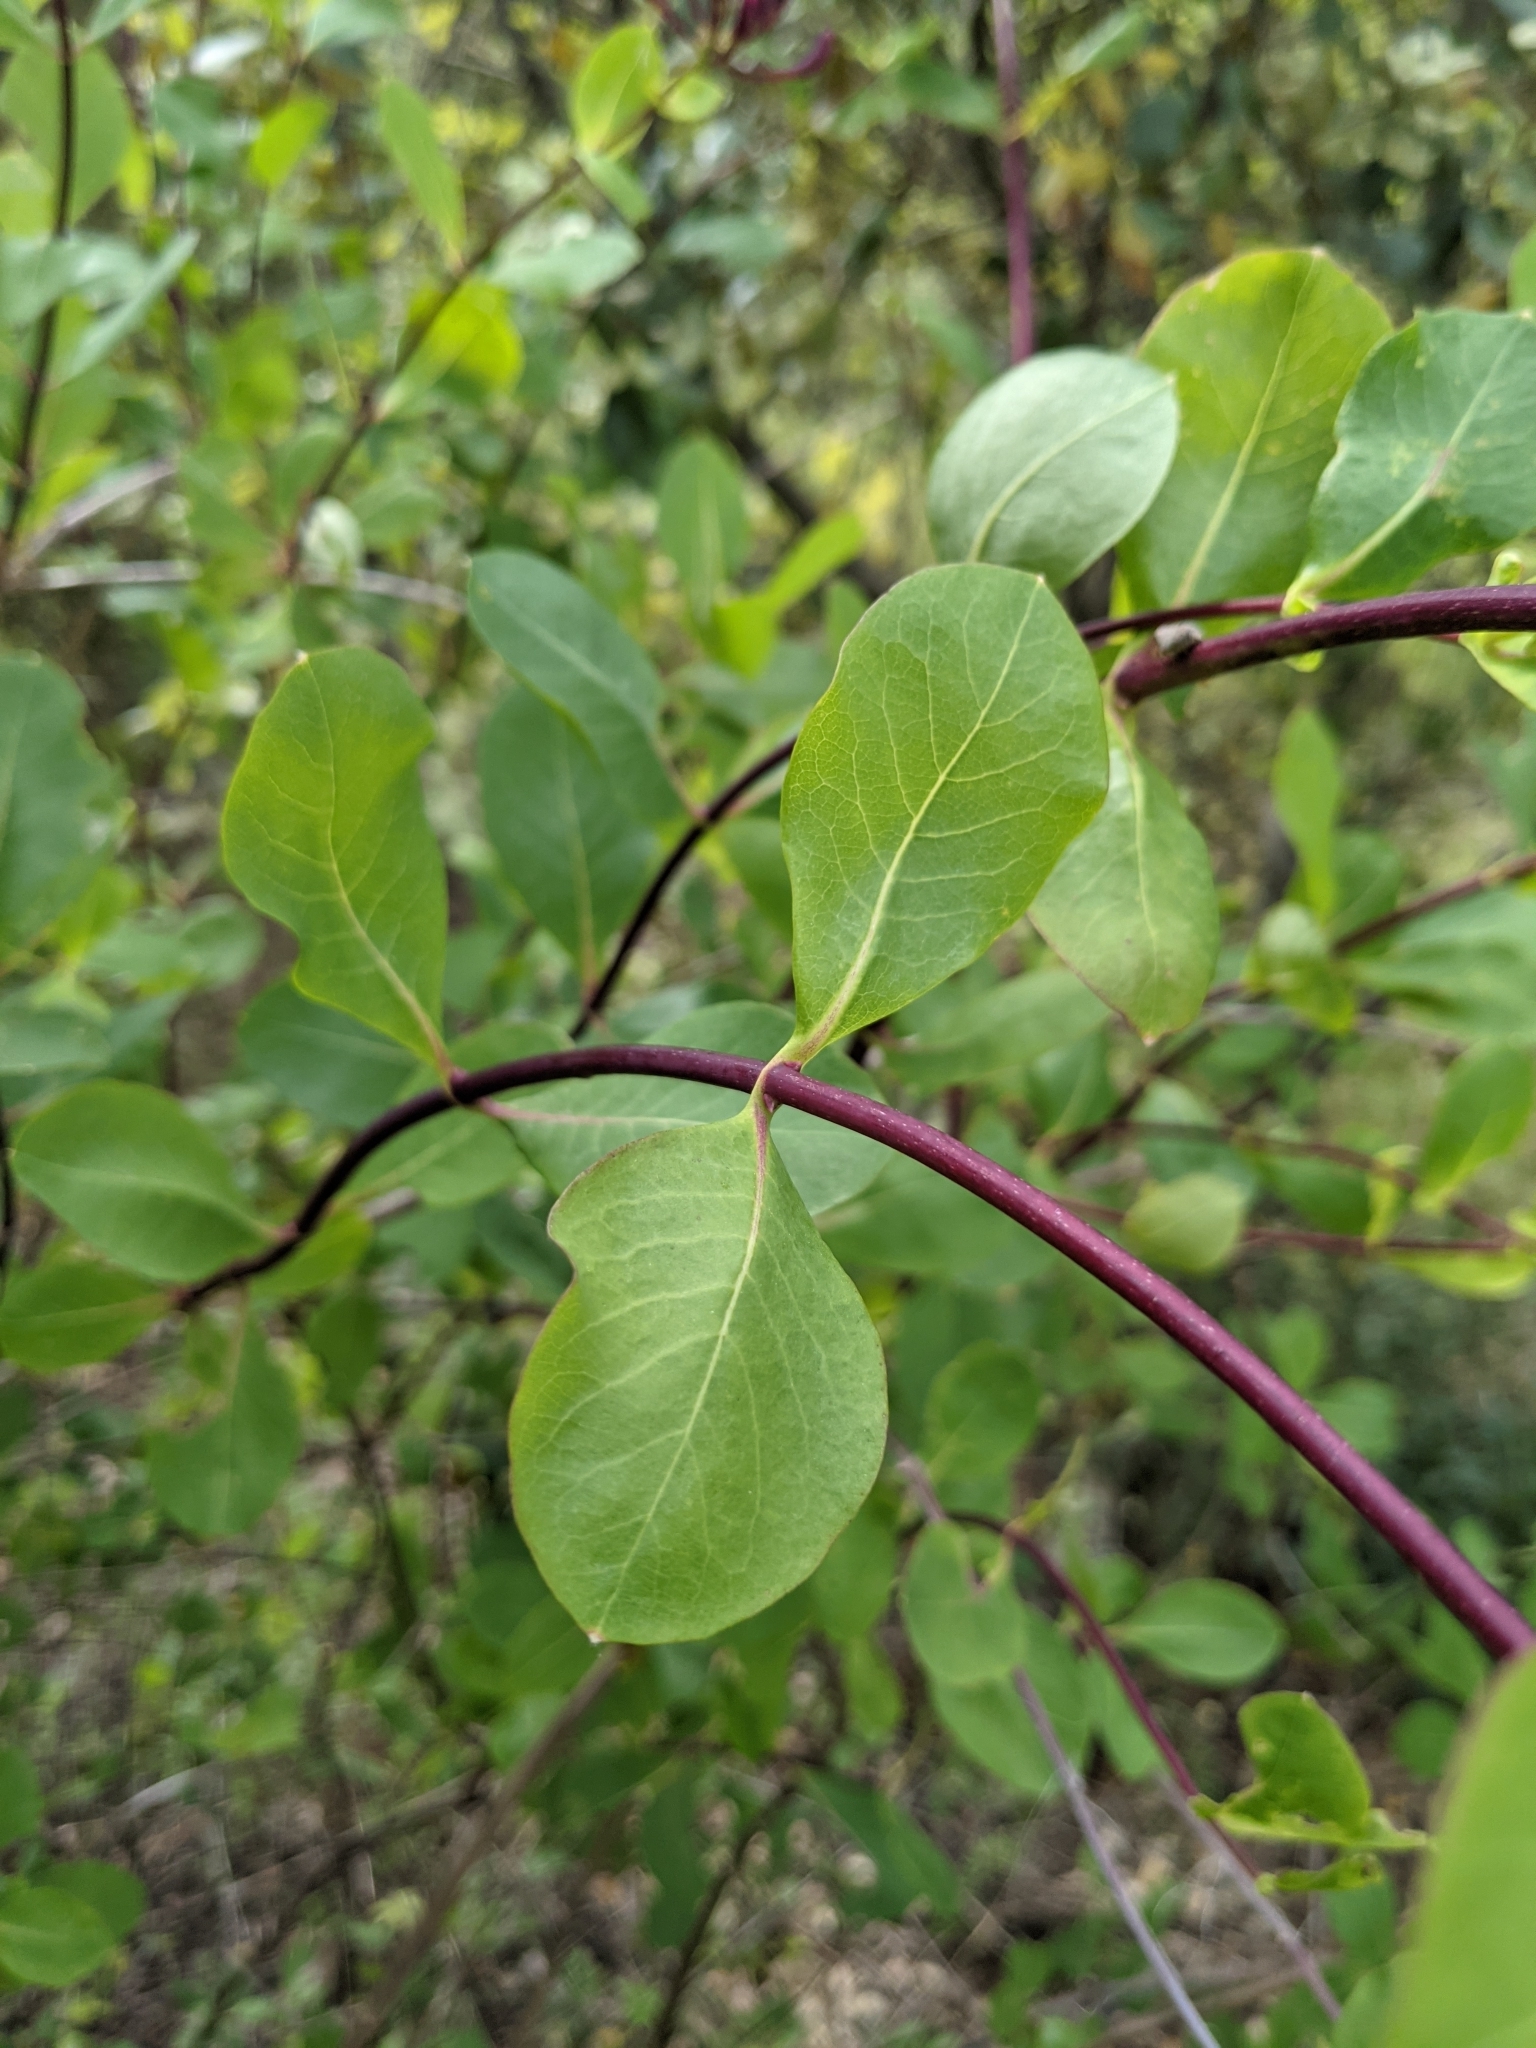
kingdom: Plantae
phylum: Tracheophyta
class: Magnoliopsida
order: Dipsacales
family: Caprifoliaceae
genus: Lonicera
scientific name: Lonicera etrusca
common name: Etruscan honeysuckle
